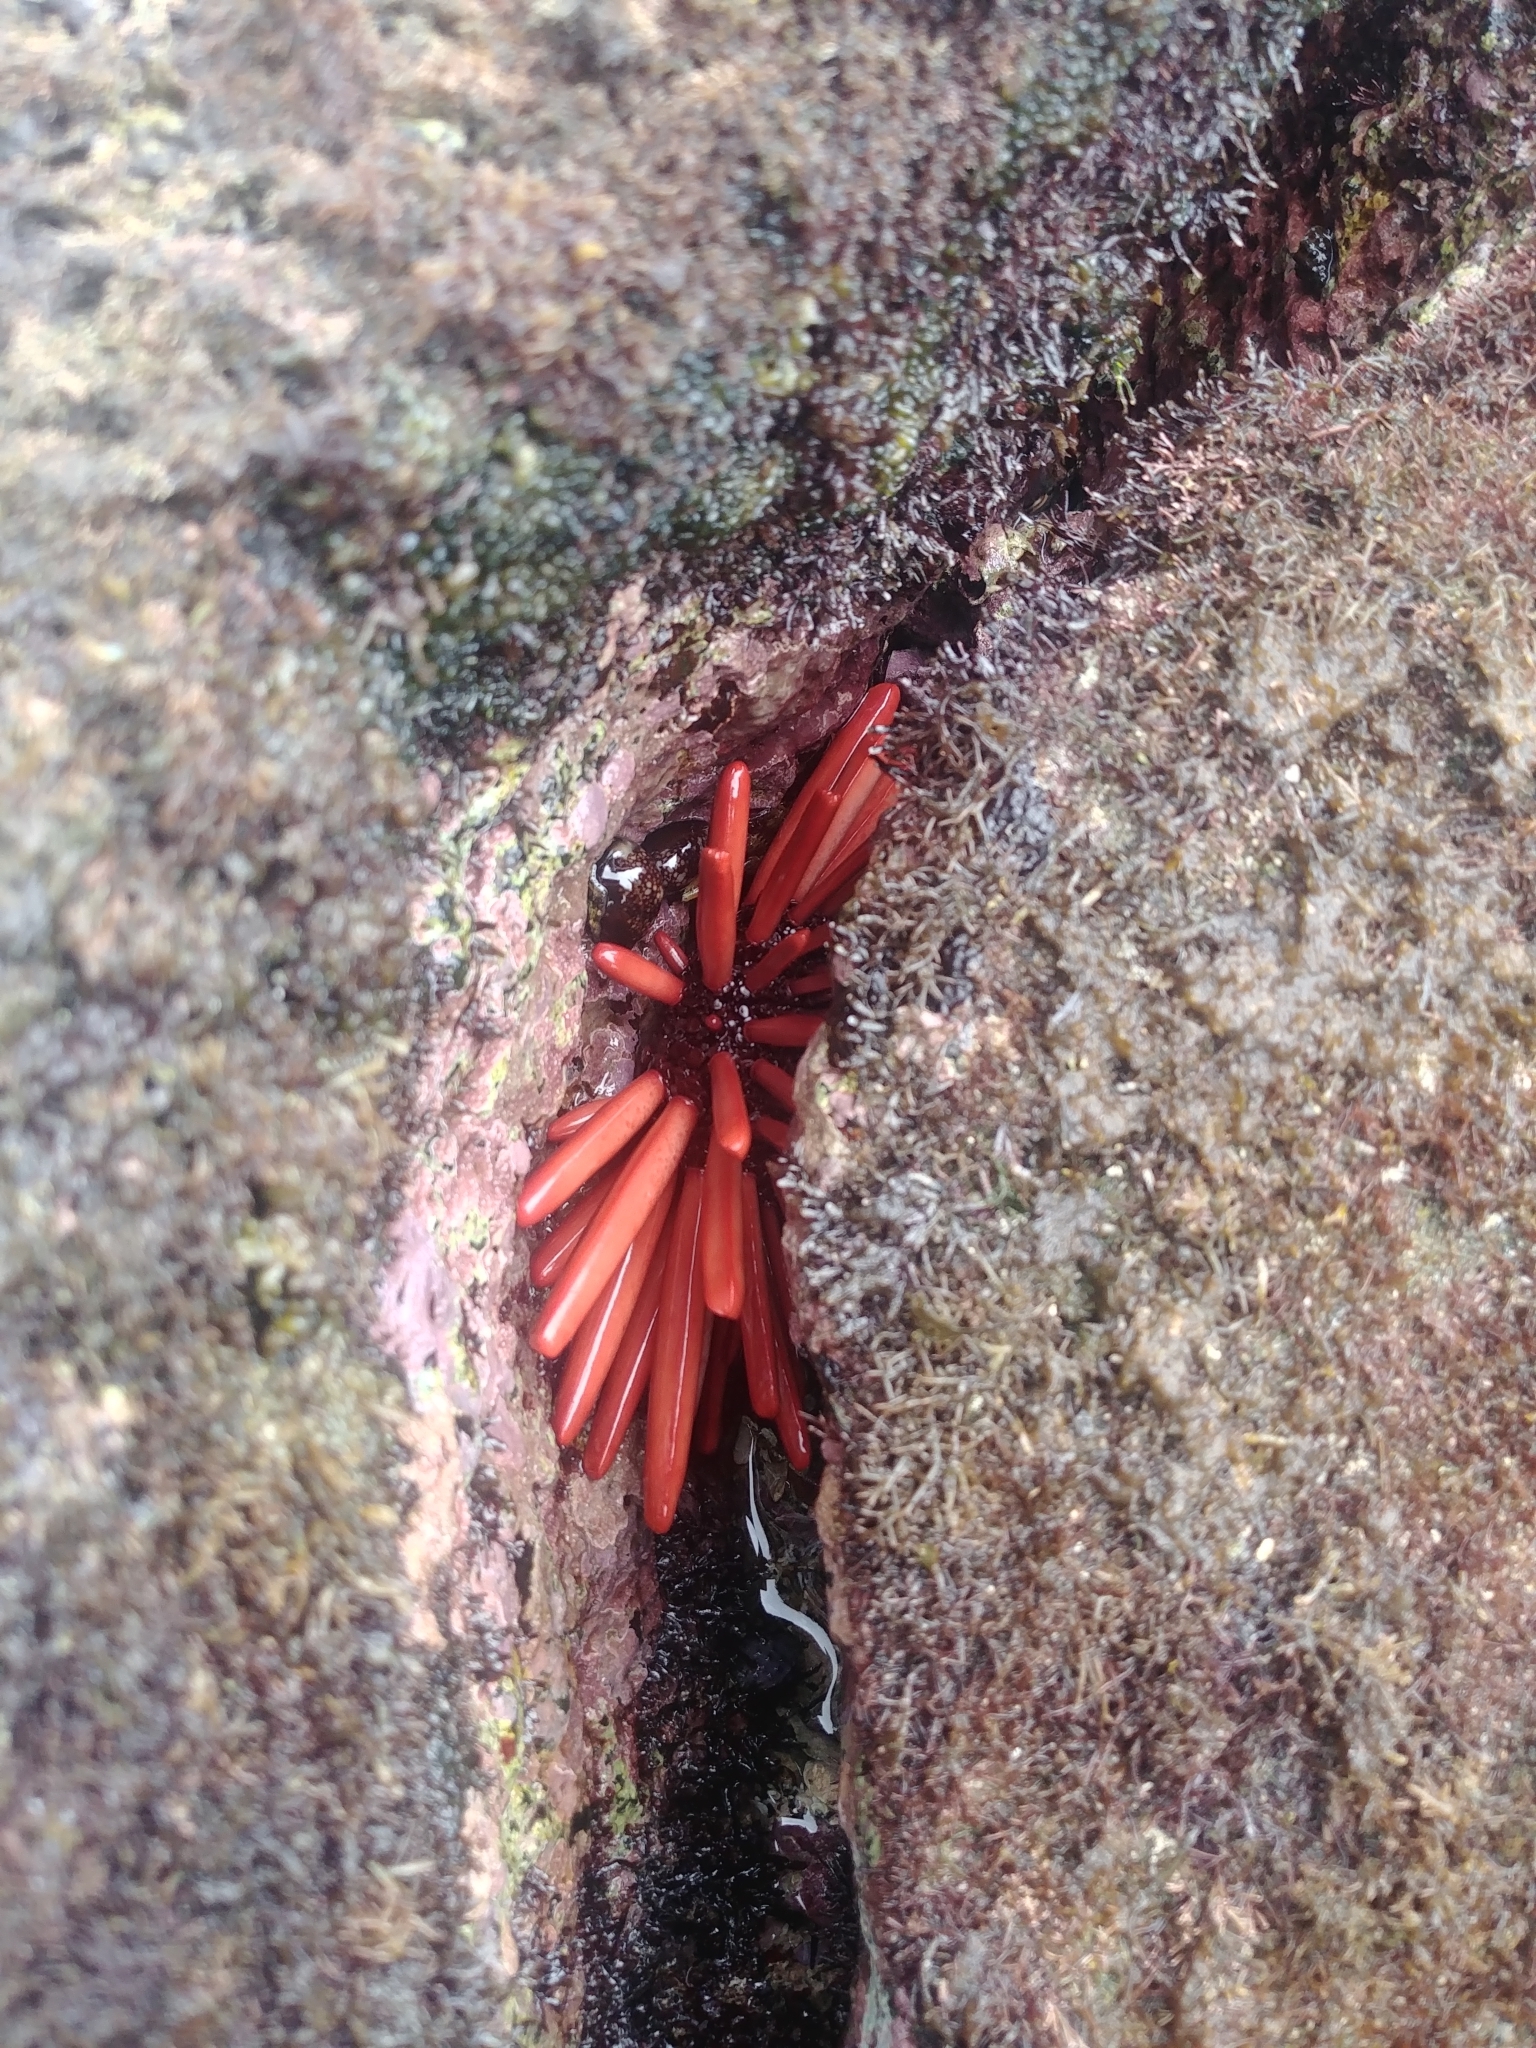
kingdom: Animalia
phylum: Echinodermata
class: Echinoidea
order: Camarodonta
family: Echinometridae
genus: Heterocentrotus
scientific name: Heterocentrotus mamillatus
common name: Slate pencil urchin
